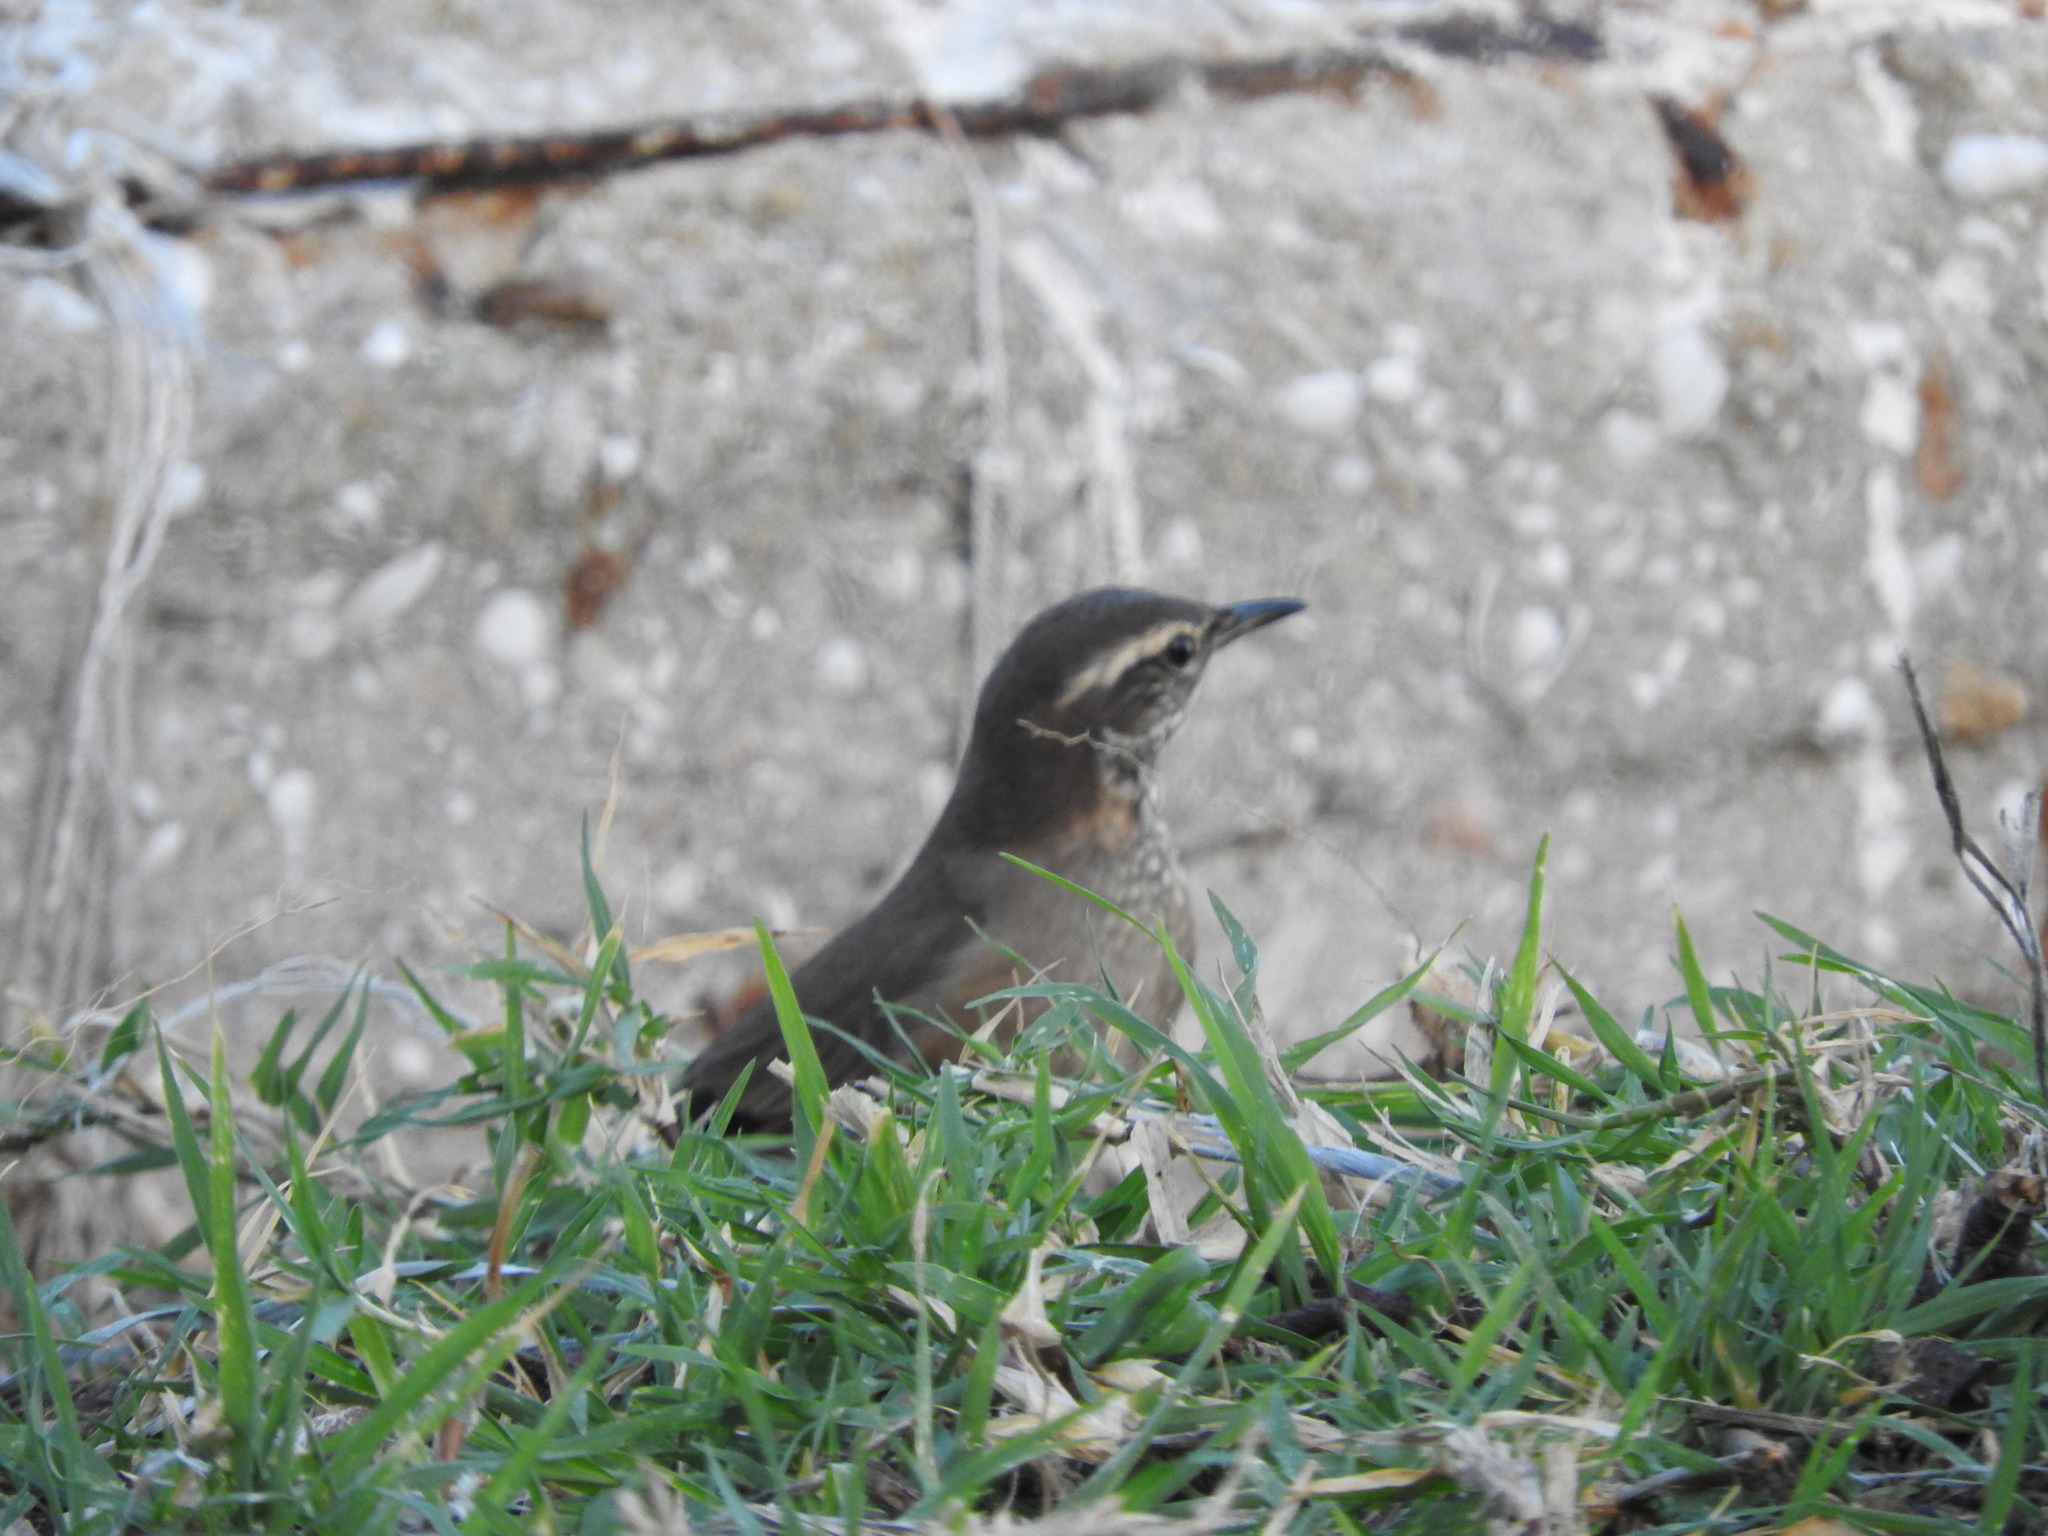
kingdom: Animalia
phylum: Chordata
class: Aves
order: Passeriformes
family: Furnariidae
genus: Cinclodes
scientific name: Cinclodes fuscus
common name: Buff-winged cinclodes
